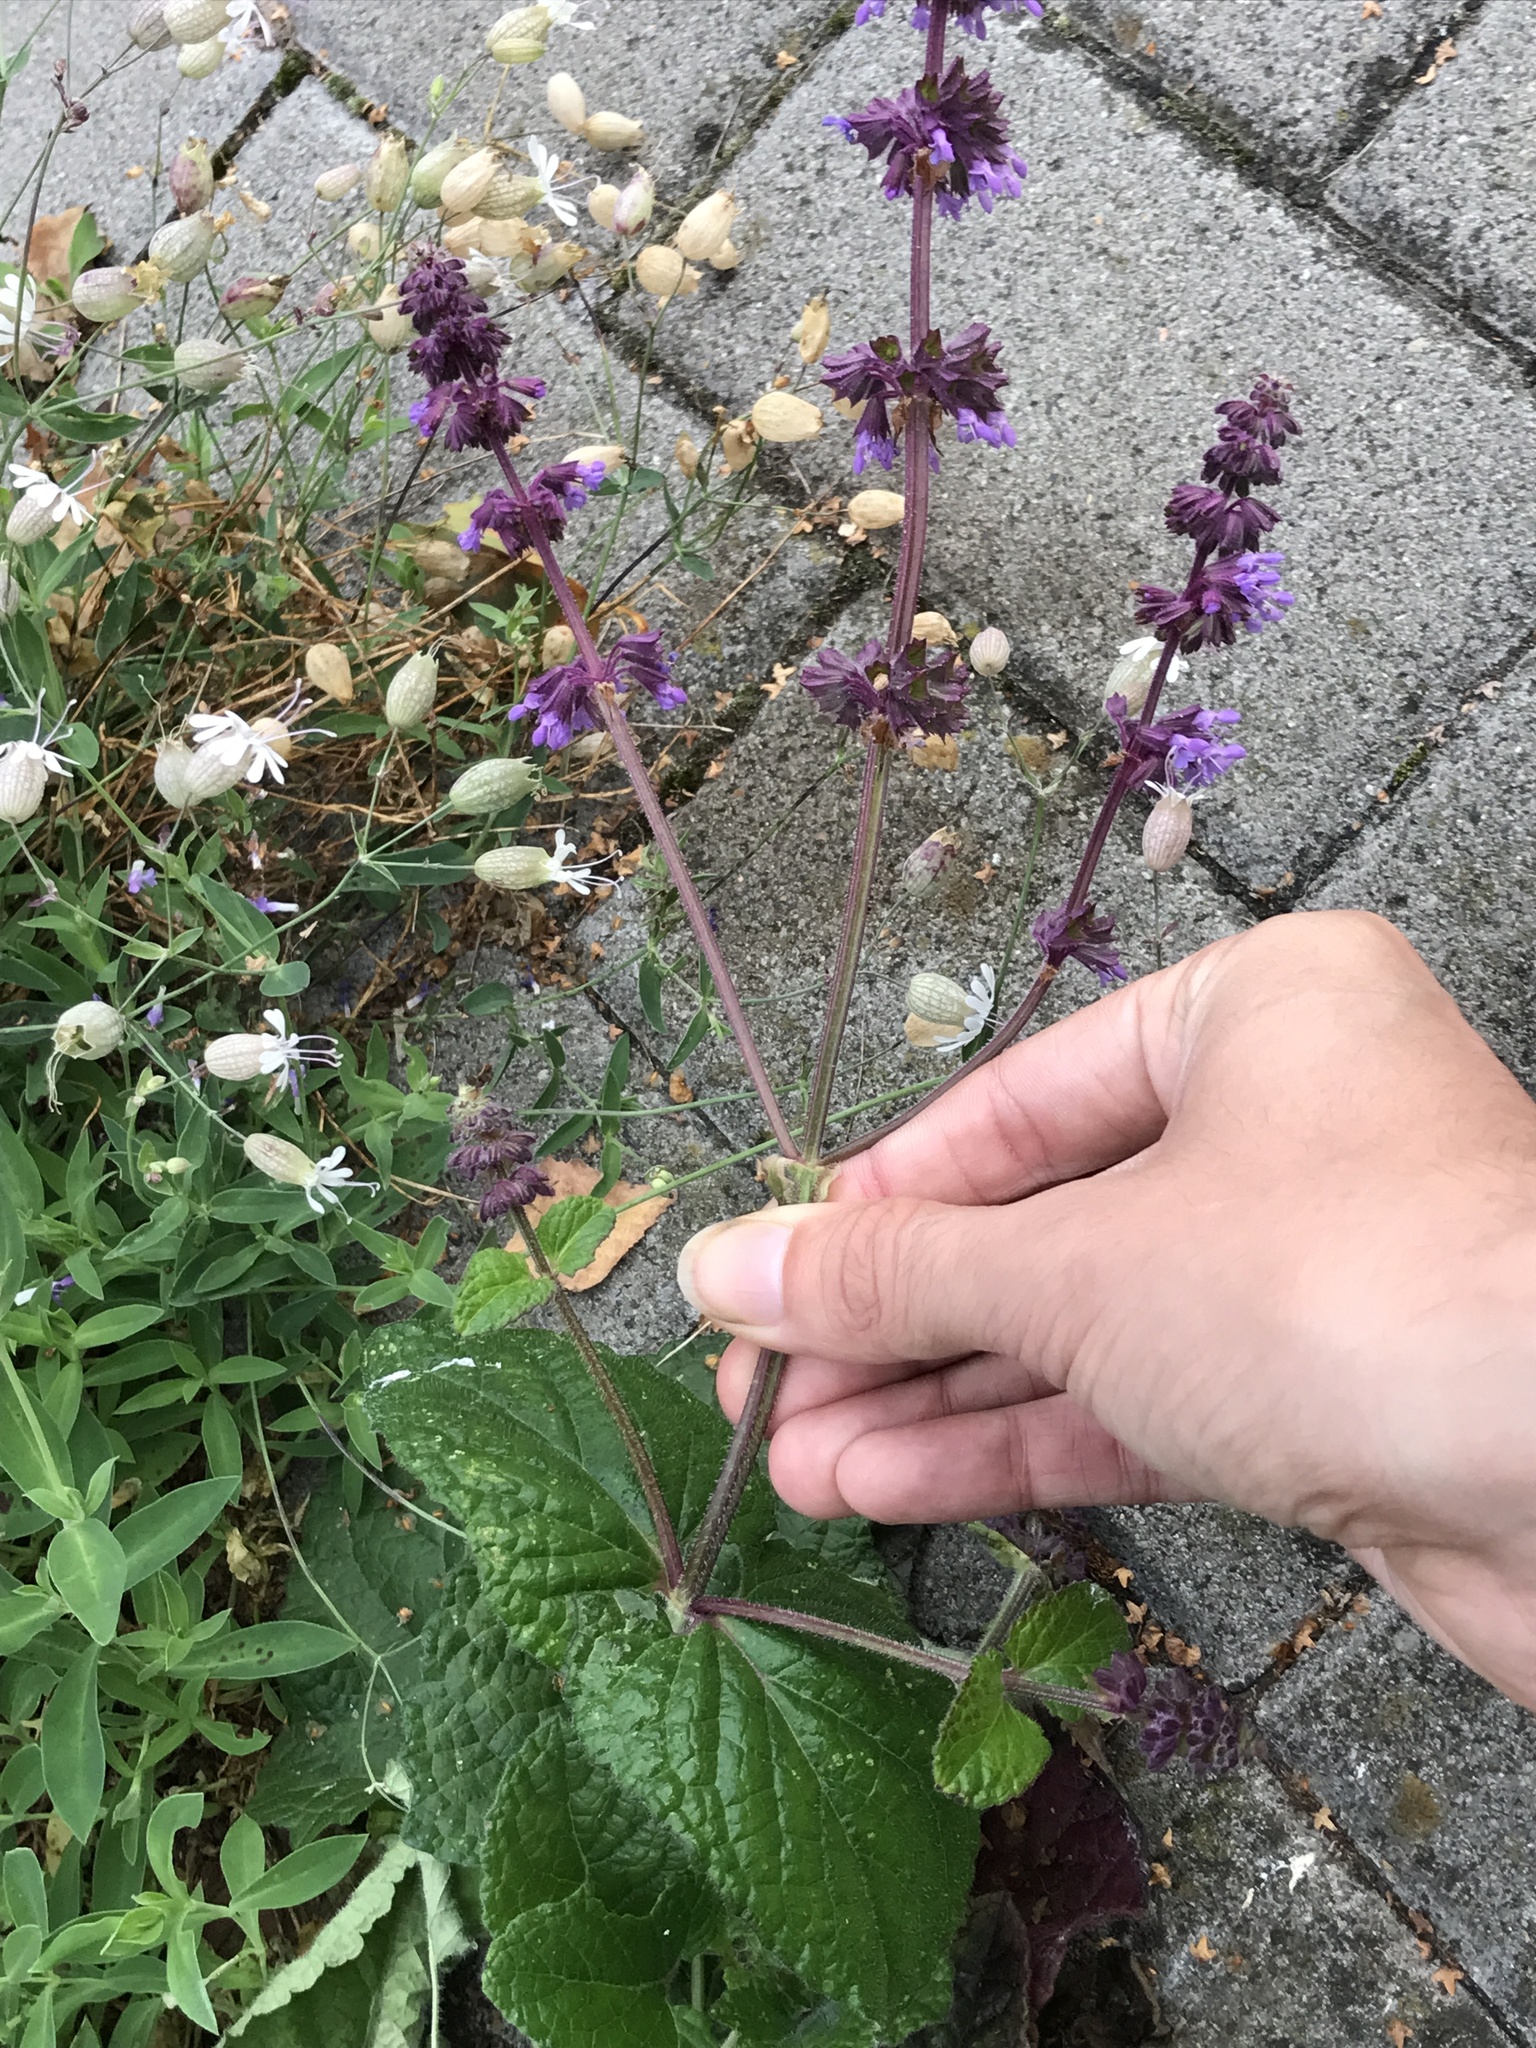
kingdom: Plantae
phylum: Tracheophyta
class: Magnoliopsida
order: Lamiales
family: Lamiaceae
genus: Salvia
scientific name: Salvia verticillata
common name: Whorled clary
